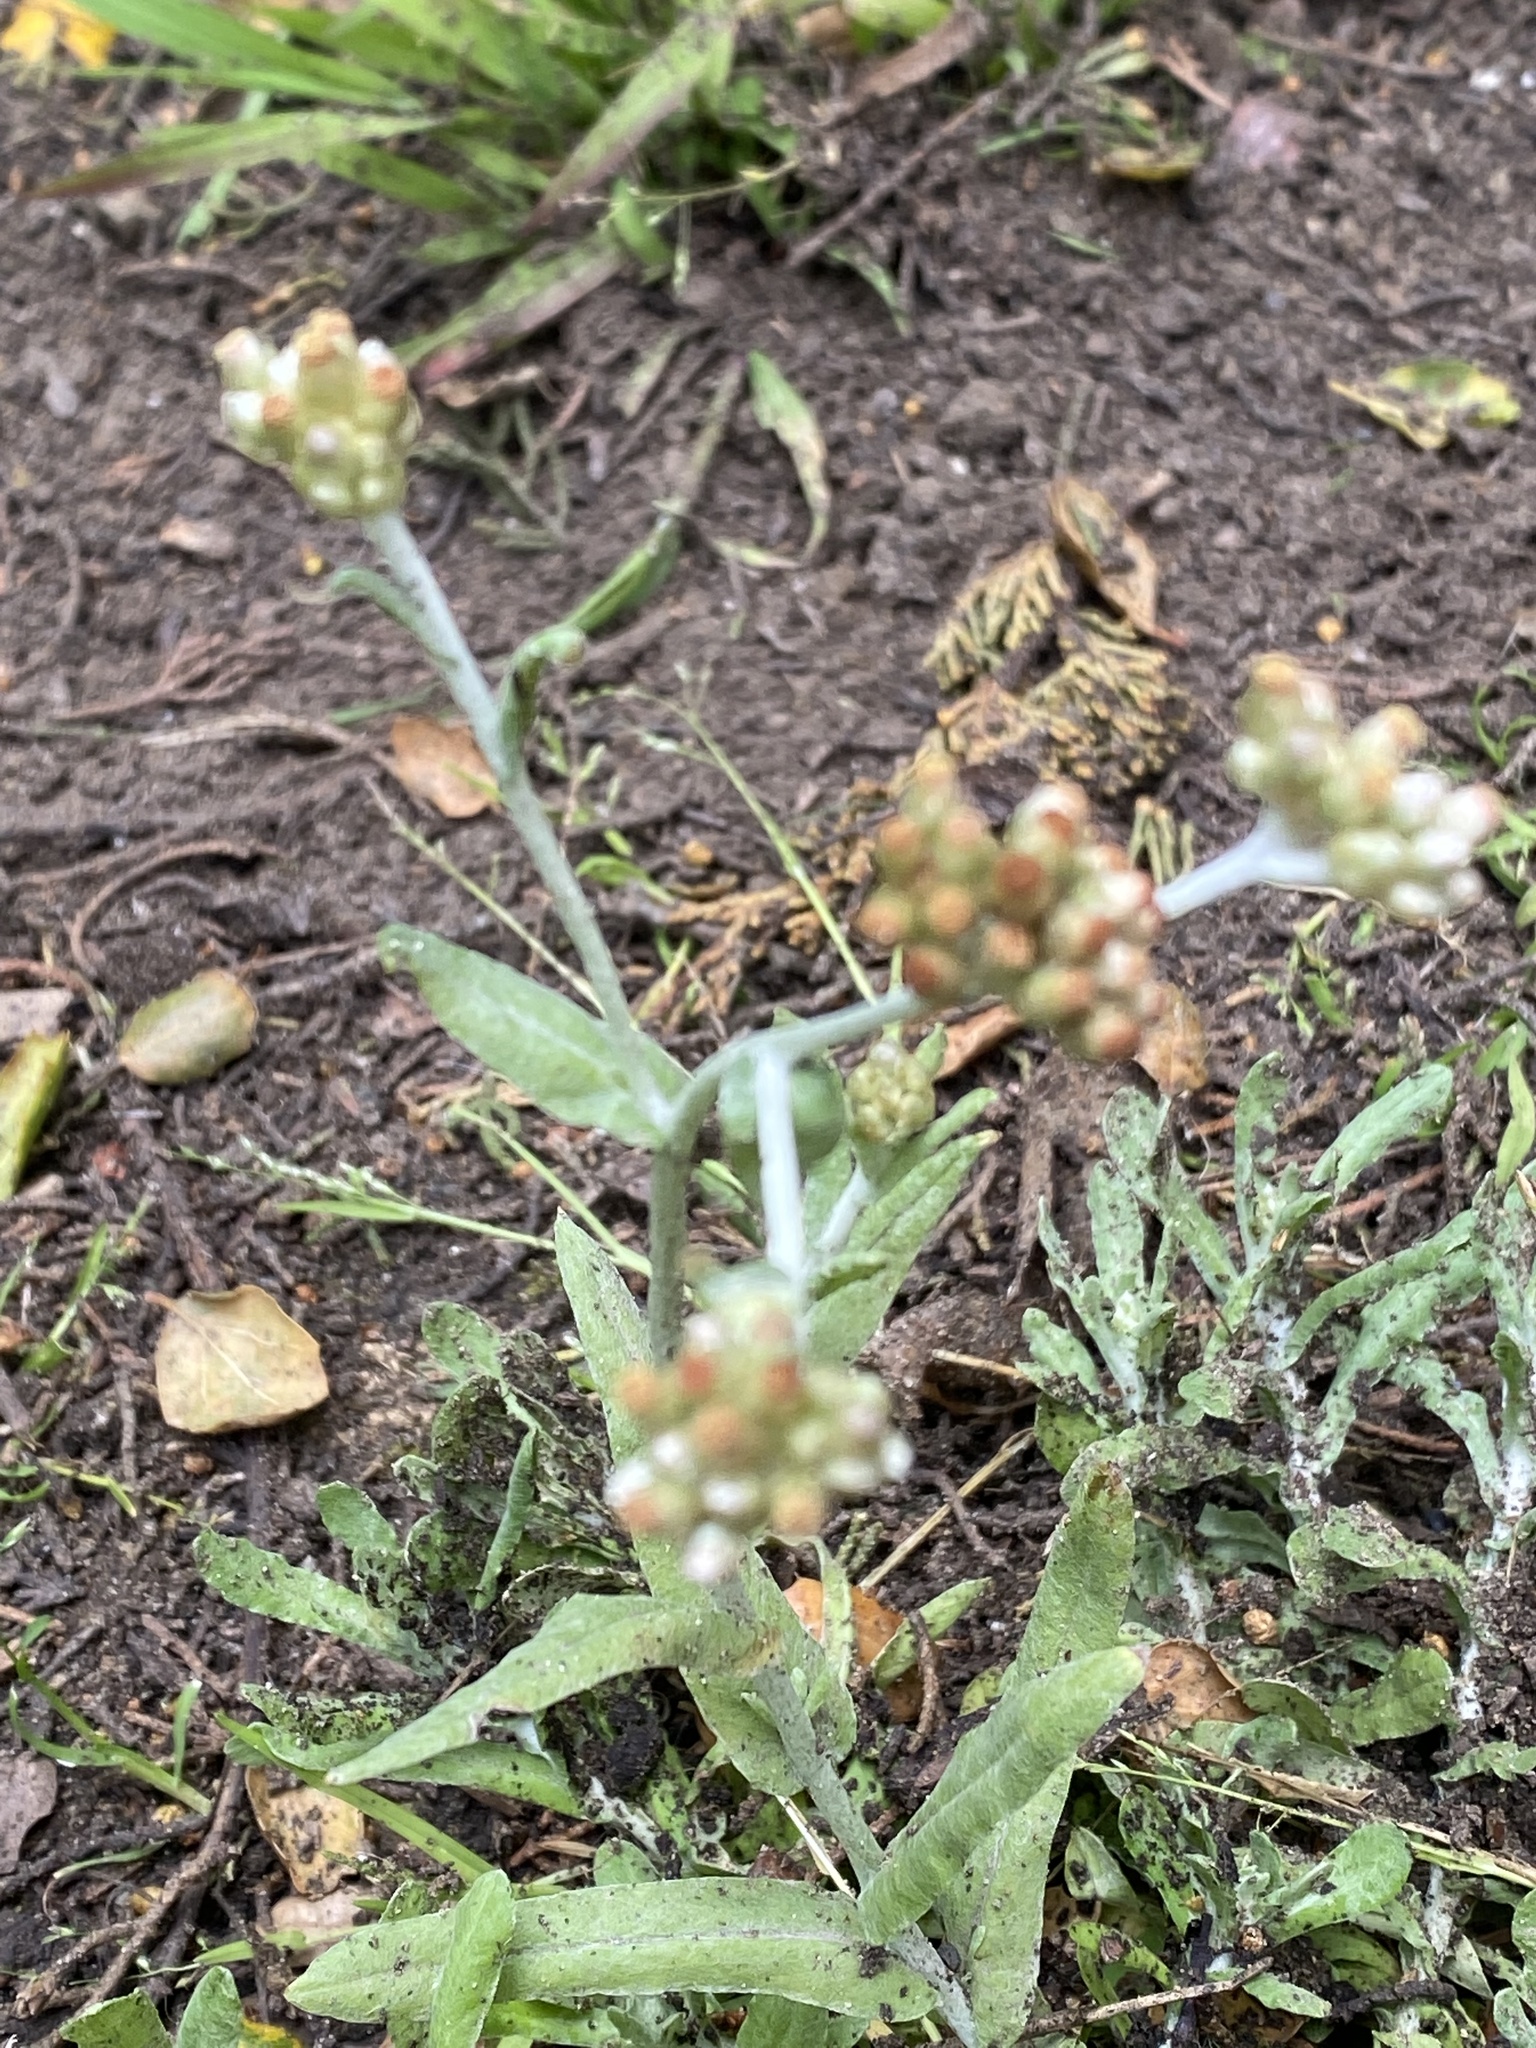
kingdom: Plantae
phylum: Tracheophyta
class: Magnoliopsida
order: Asterales
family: Asteraceae
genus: Helichrysum
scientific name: Helichrysum luteoalbum
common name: Daisy
